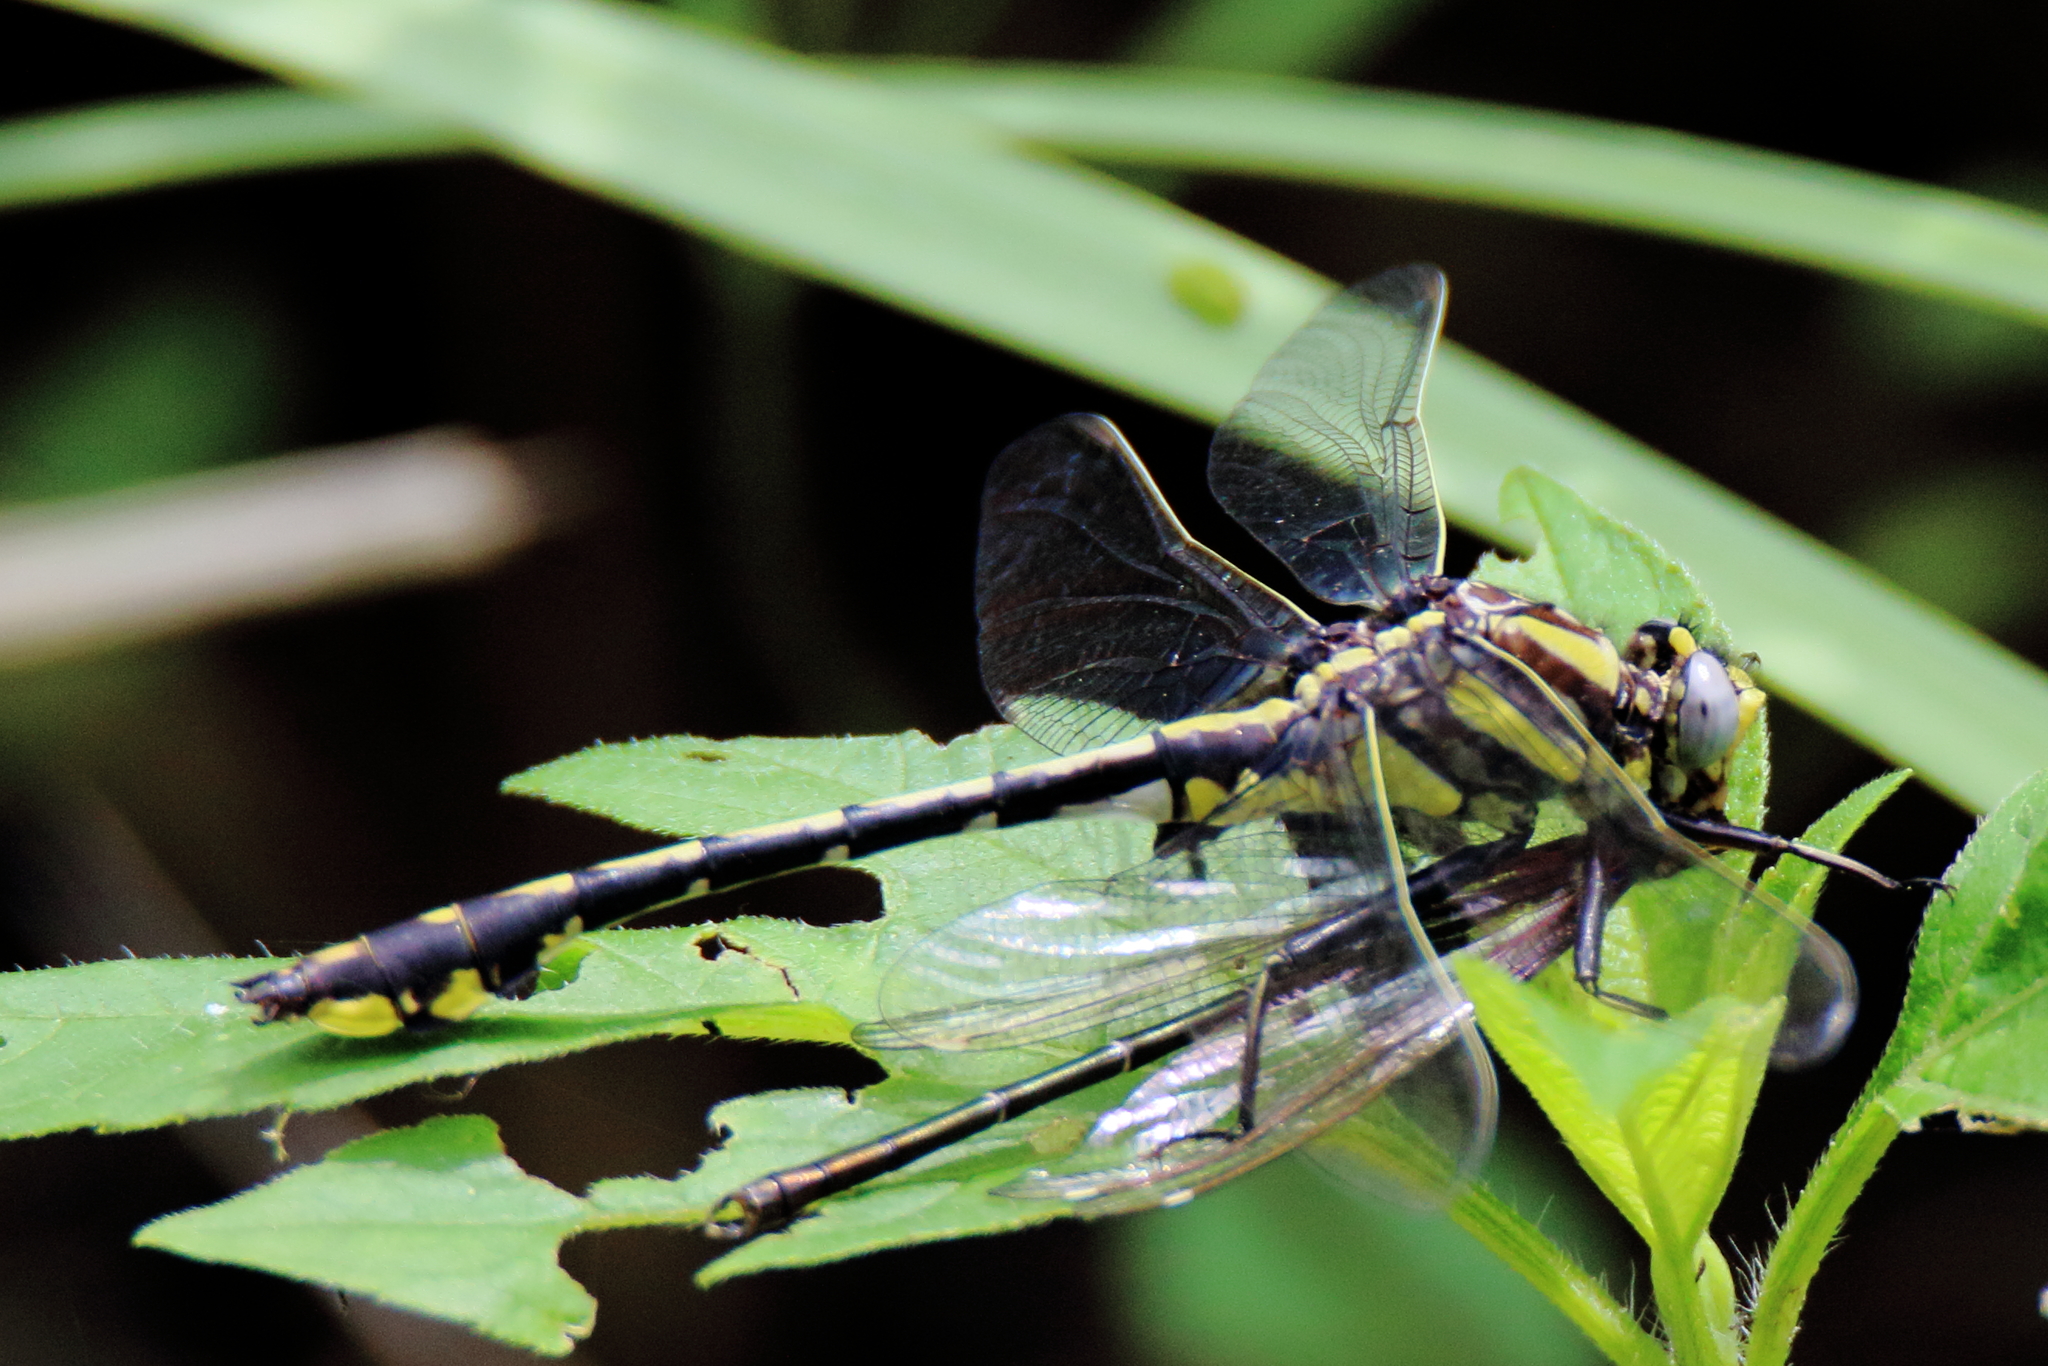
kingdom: Animalia
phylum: Arthropoda
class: Insecta
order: Odonata
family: Gomphidae
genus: Gomphurus
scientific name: Gomphurus externus
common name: Plains clubtail
